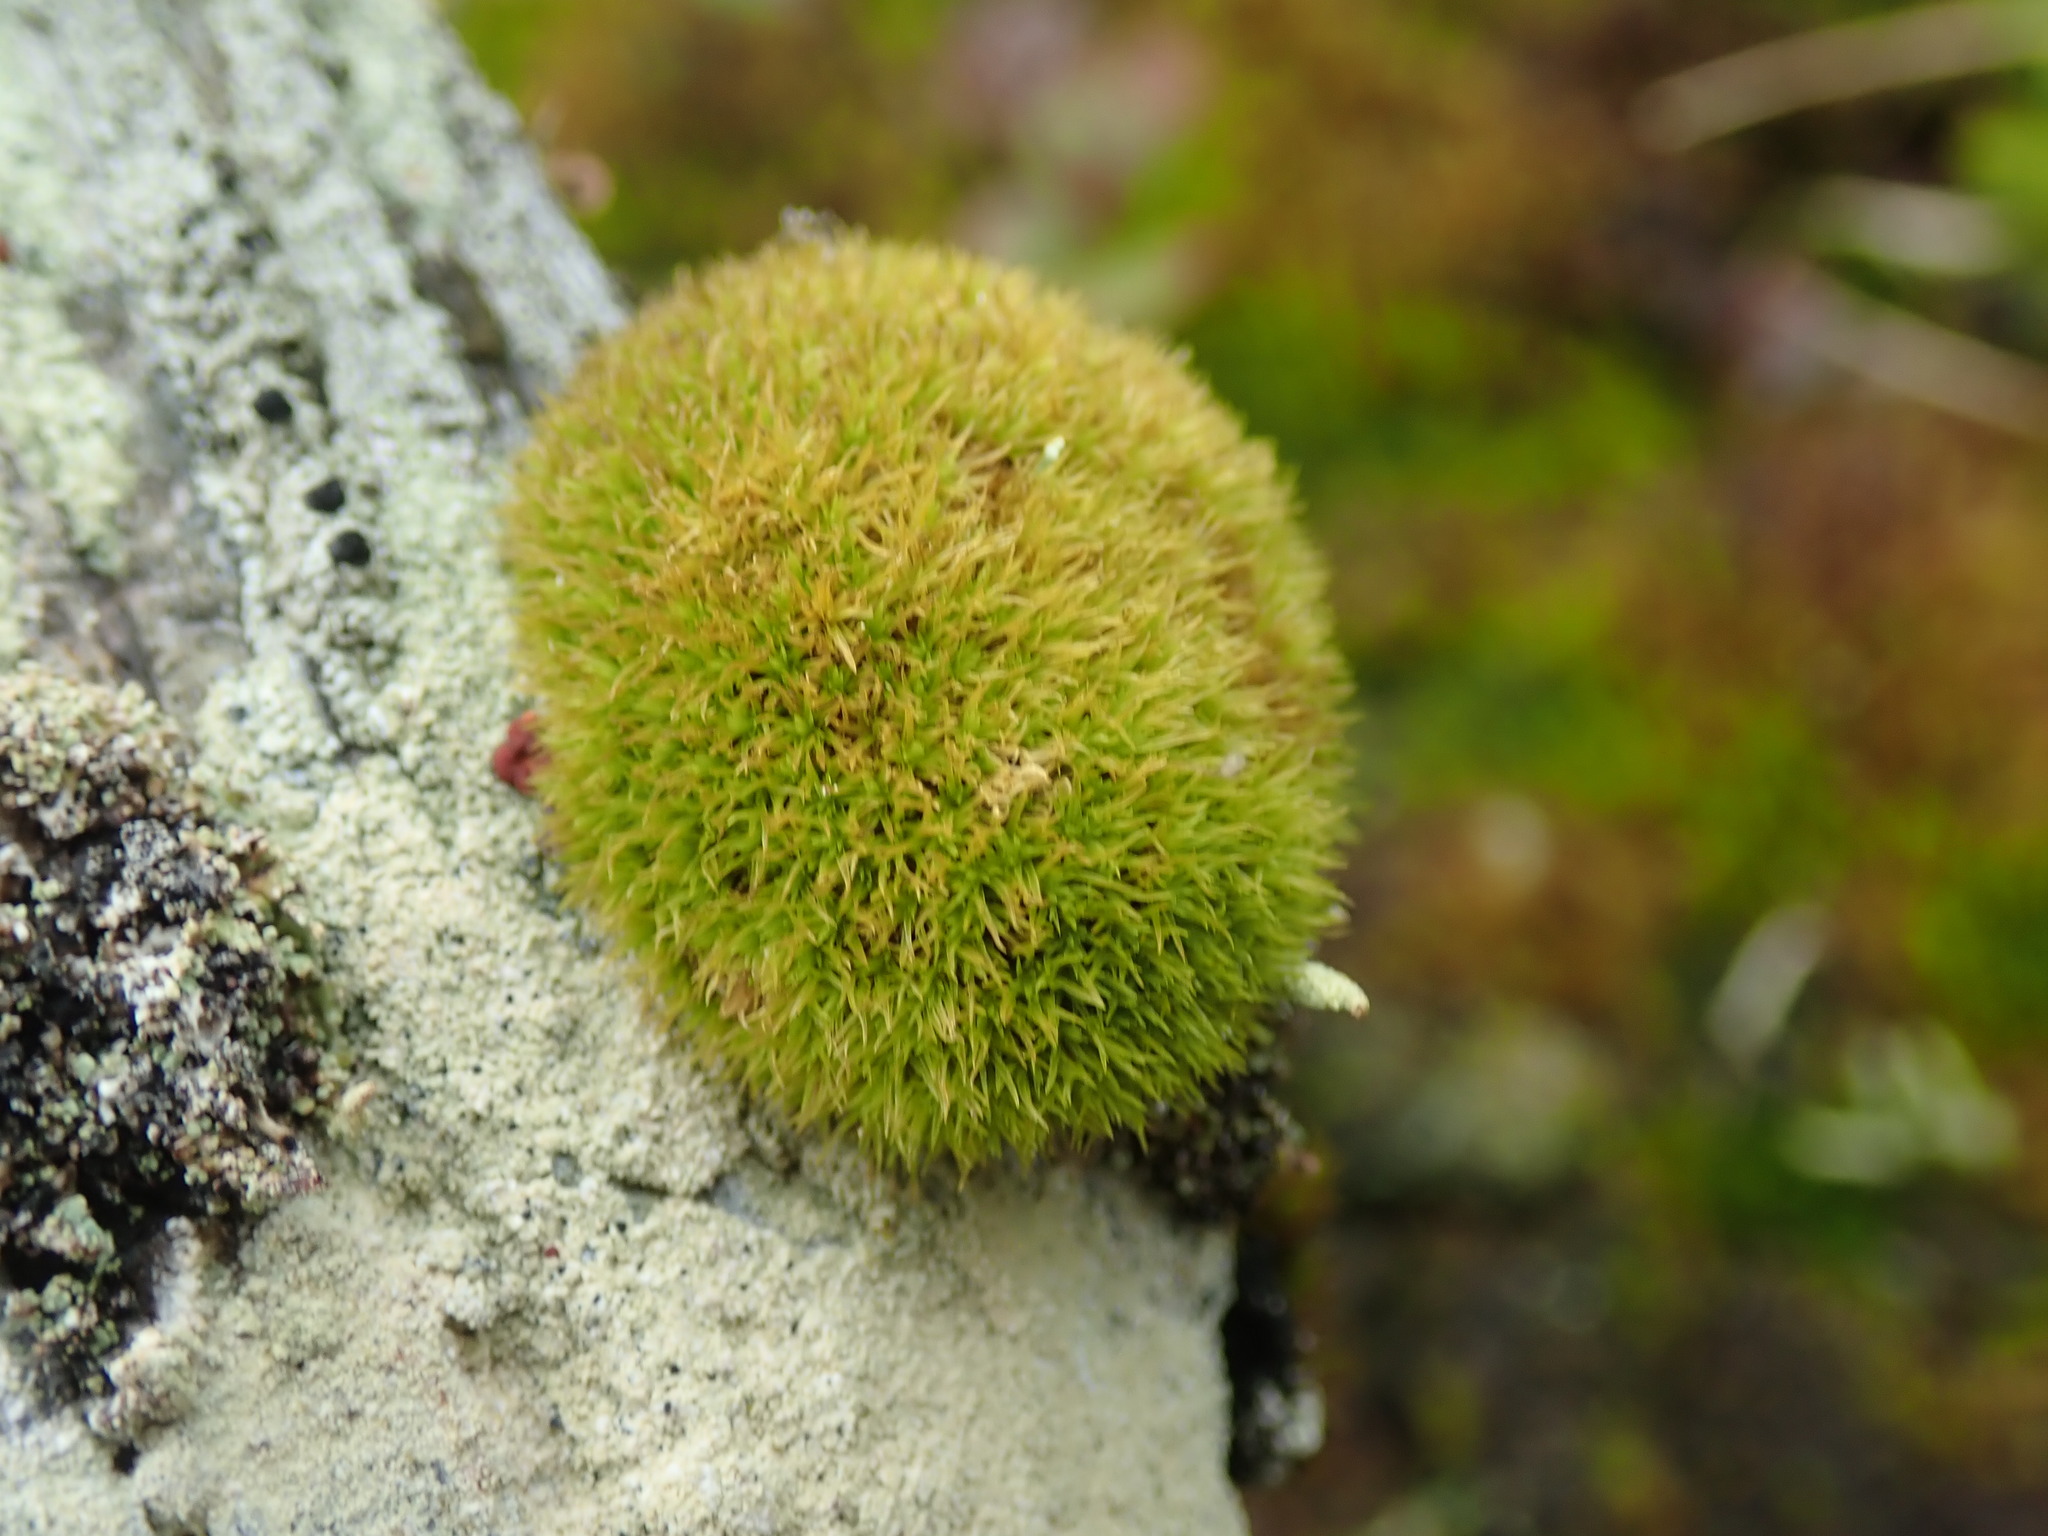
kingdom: Plantae
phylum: Bryophyta
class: Bryopsida
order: Dicranales
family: Rhabdoweisiaceae
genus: Dicranoweisia
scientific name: Dicranoweisia cirrata
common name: Common pincushion
